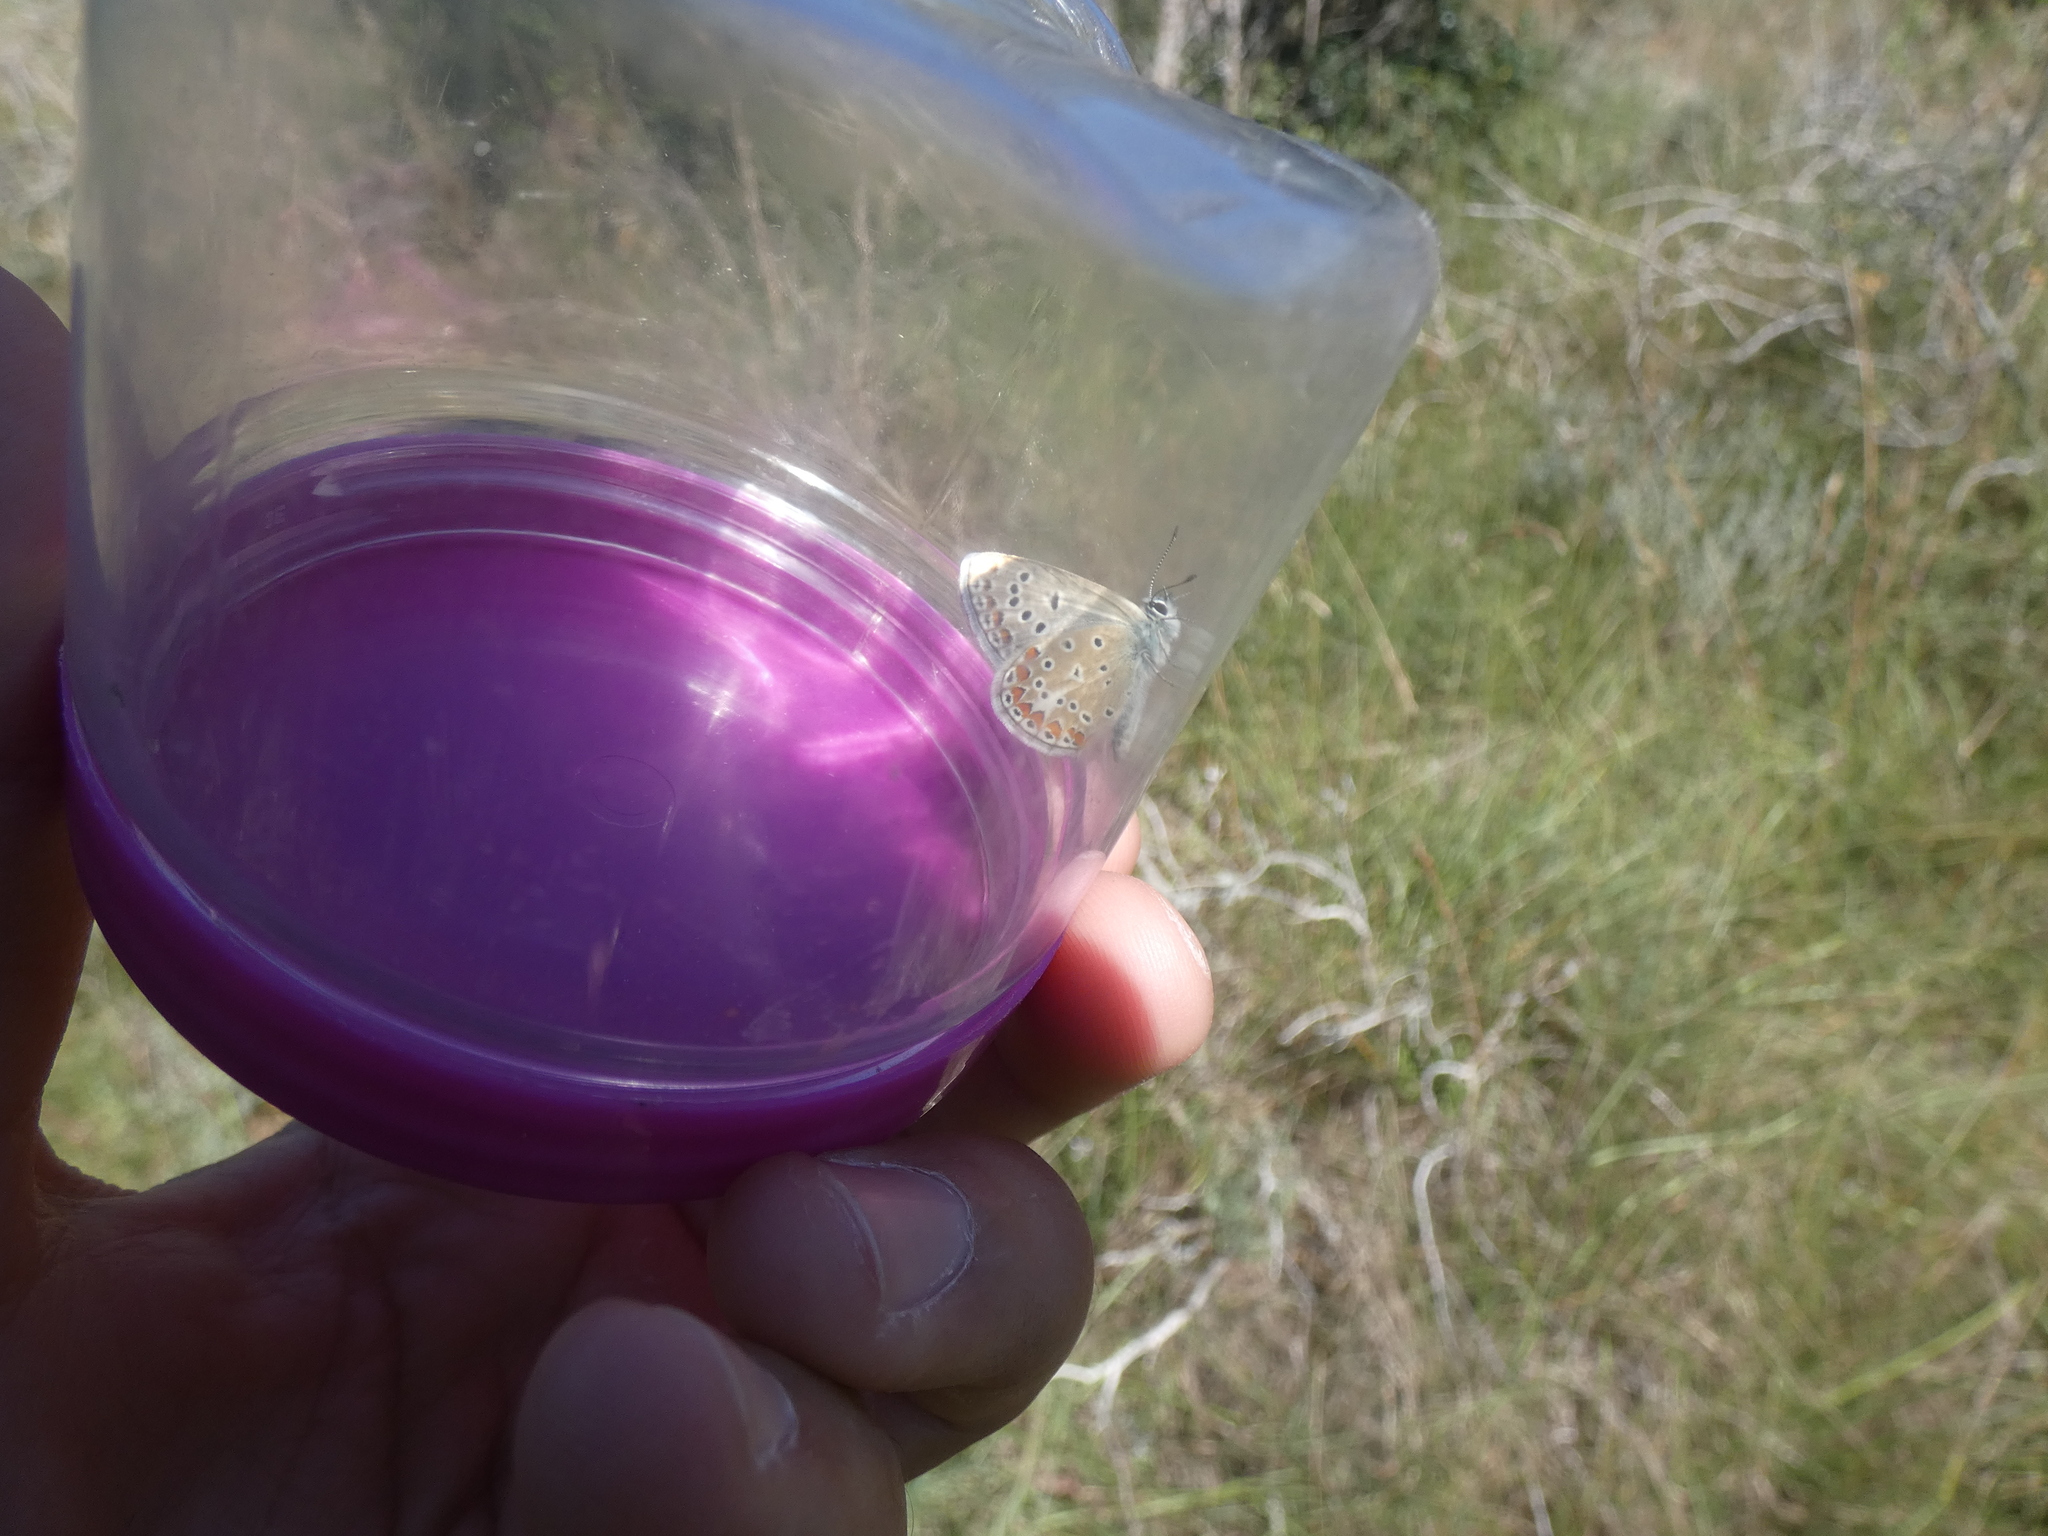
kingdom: Animalia
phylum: Arthropoda
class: Insecta
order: Lepidoptera
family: Lycaenidae
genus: Polyommatus
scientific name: Polyommatus thersites
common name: Chapman's blue
